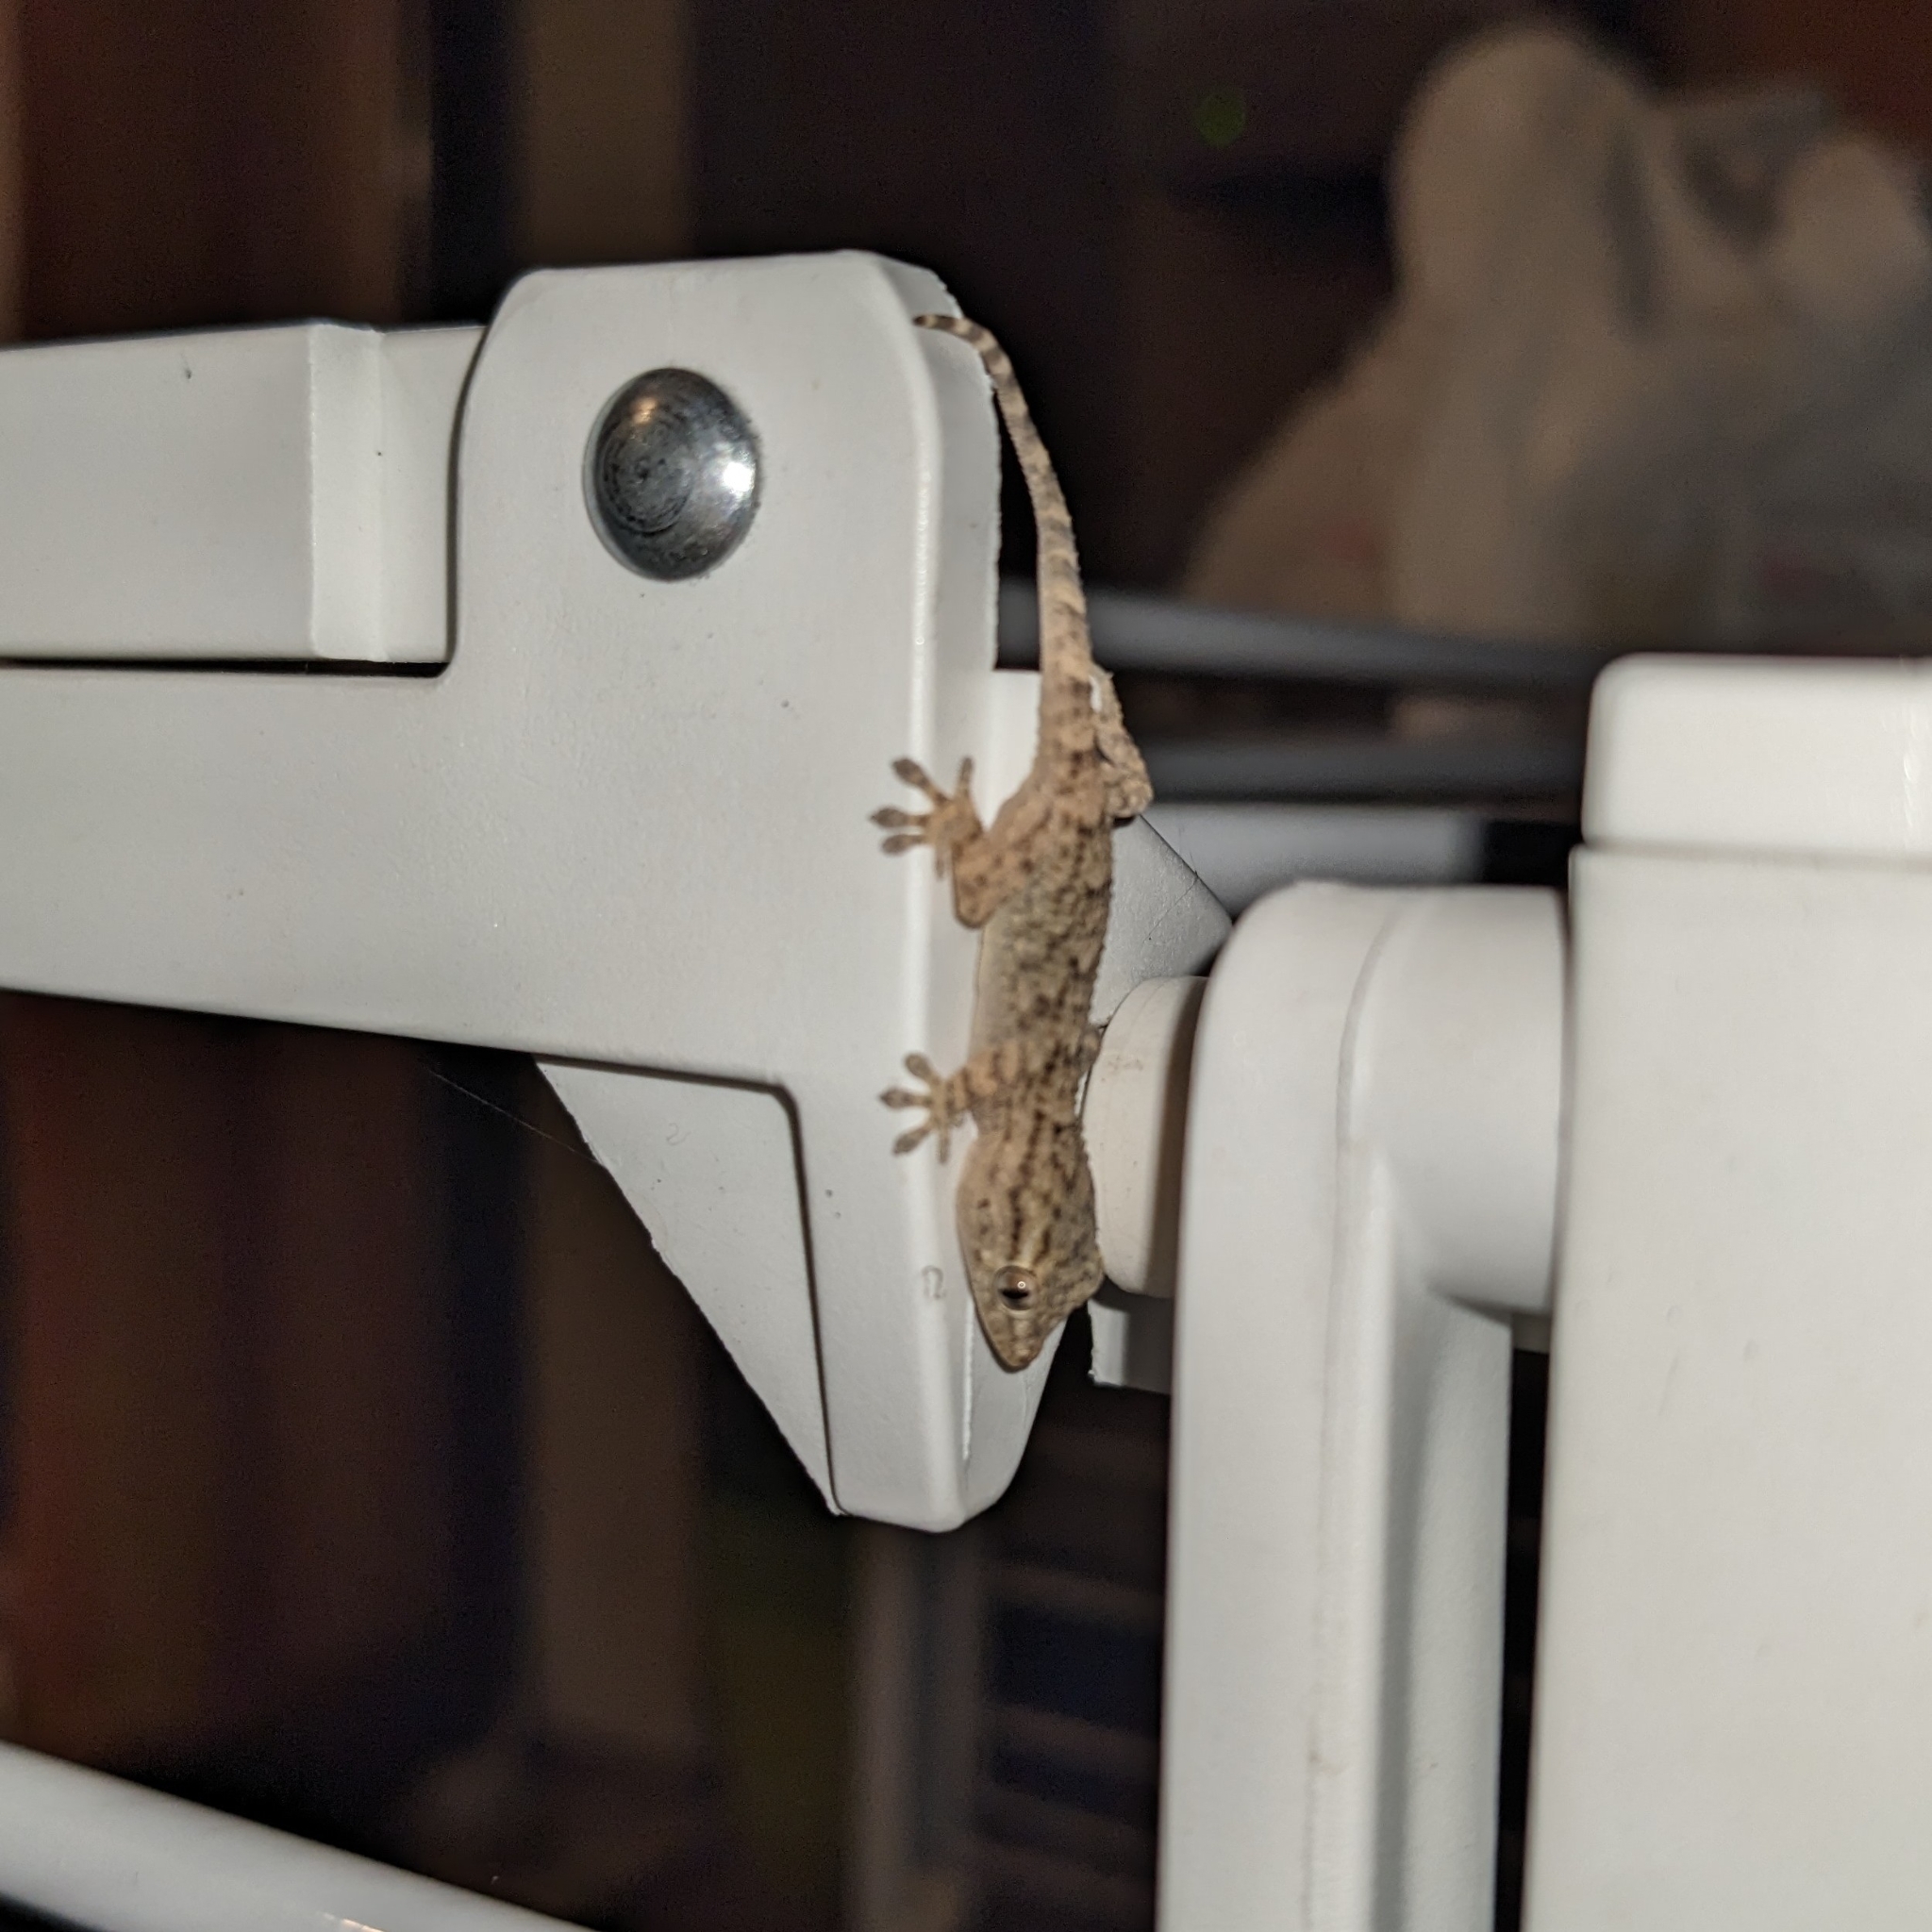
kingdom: Animalia
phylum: Chordata
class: Squamata
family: Phyllodactylidae
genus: Tarentola
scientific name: Tarentola mauritanica
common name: Moorish gecko
